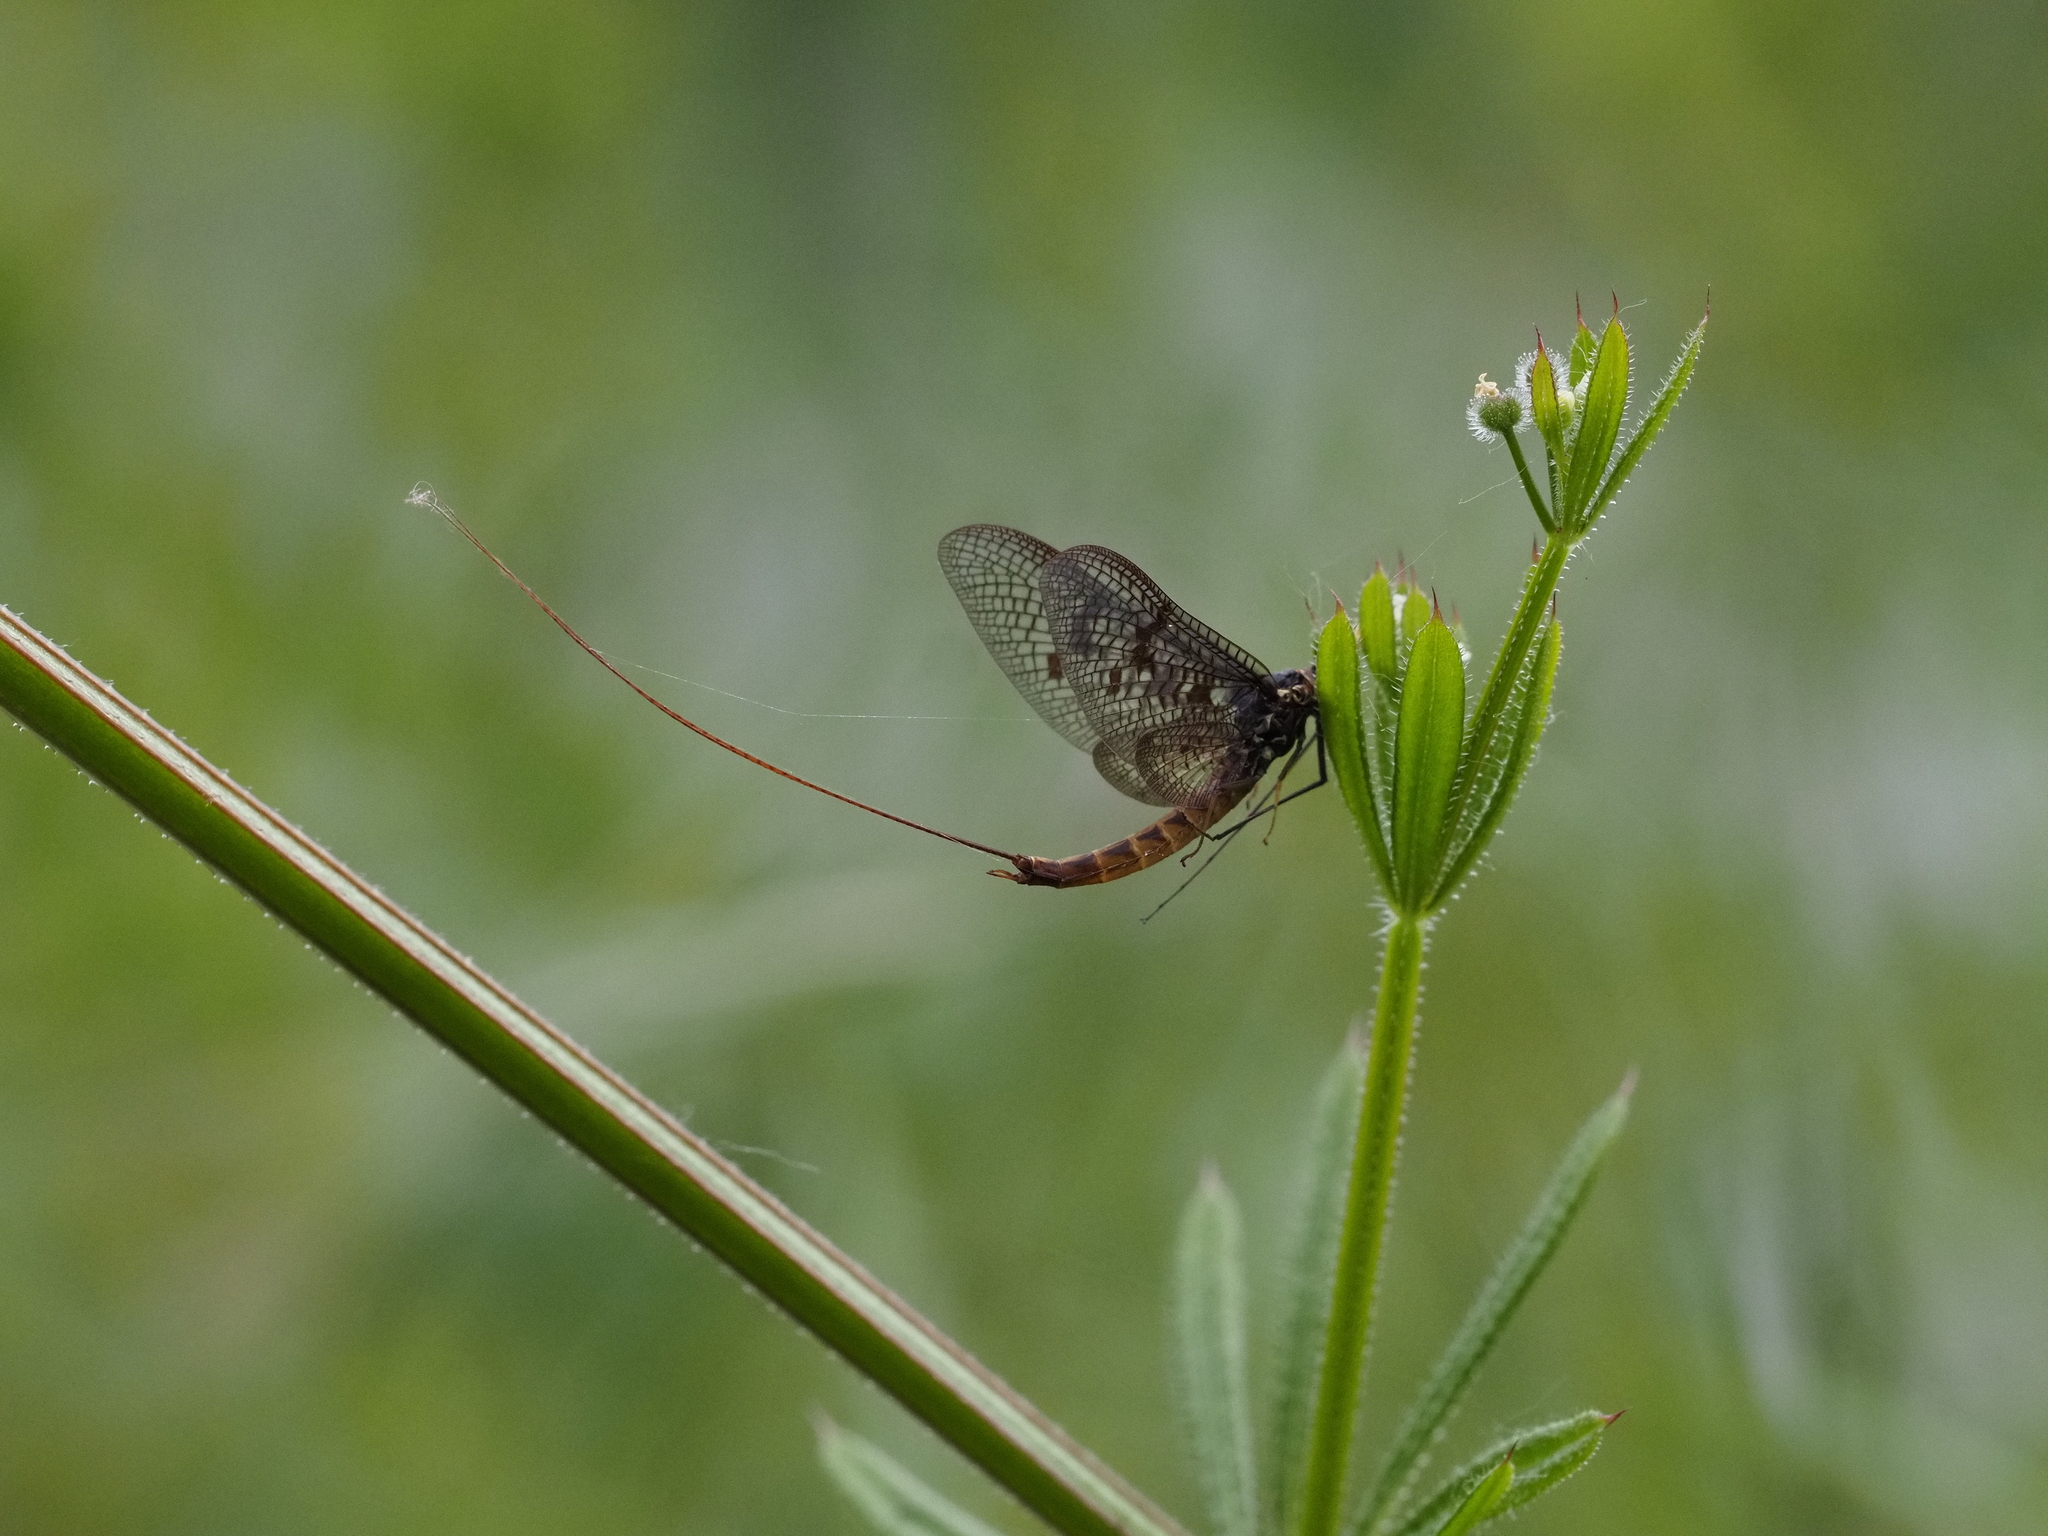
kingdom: Animalia
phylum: Arthropoda
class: Insecta
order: Ephemeroptera
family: Ephemeridae
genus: Ephemera
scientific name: Ephemera vulgata
